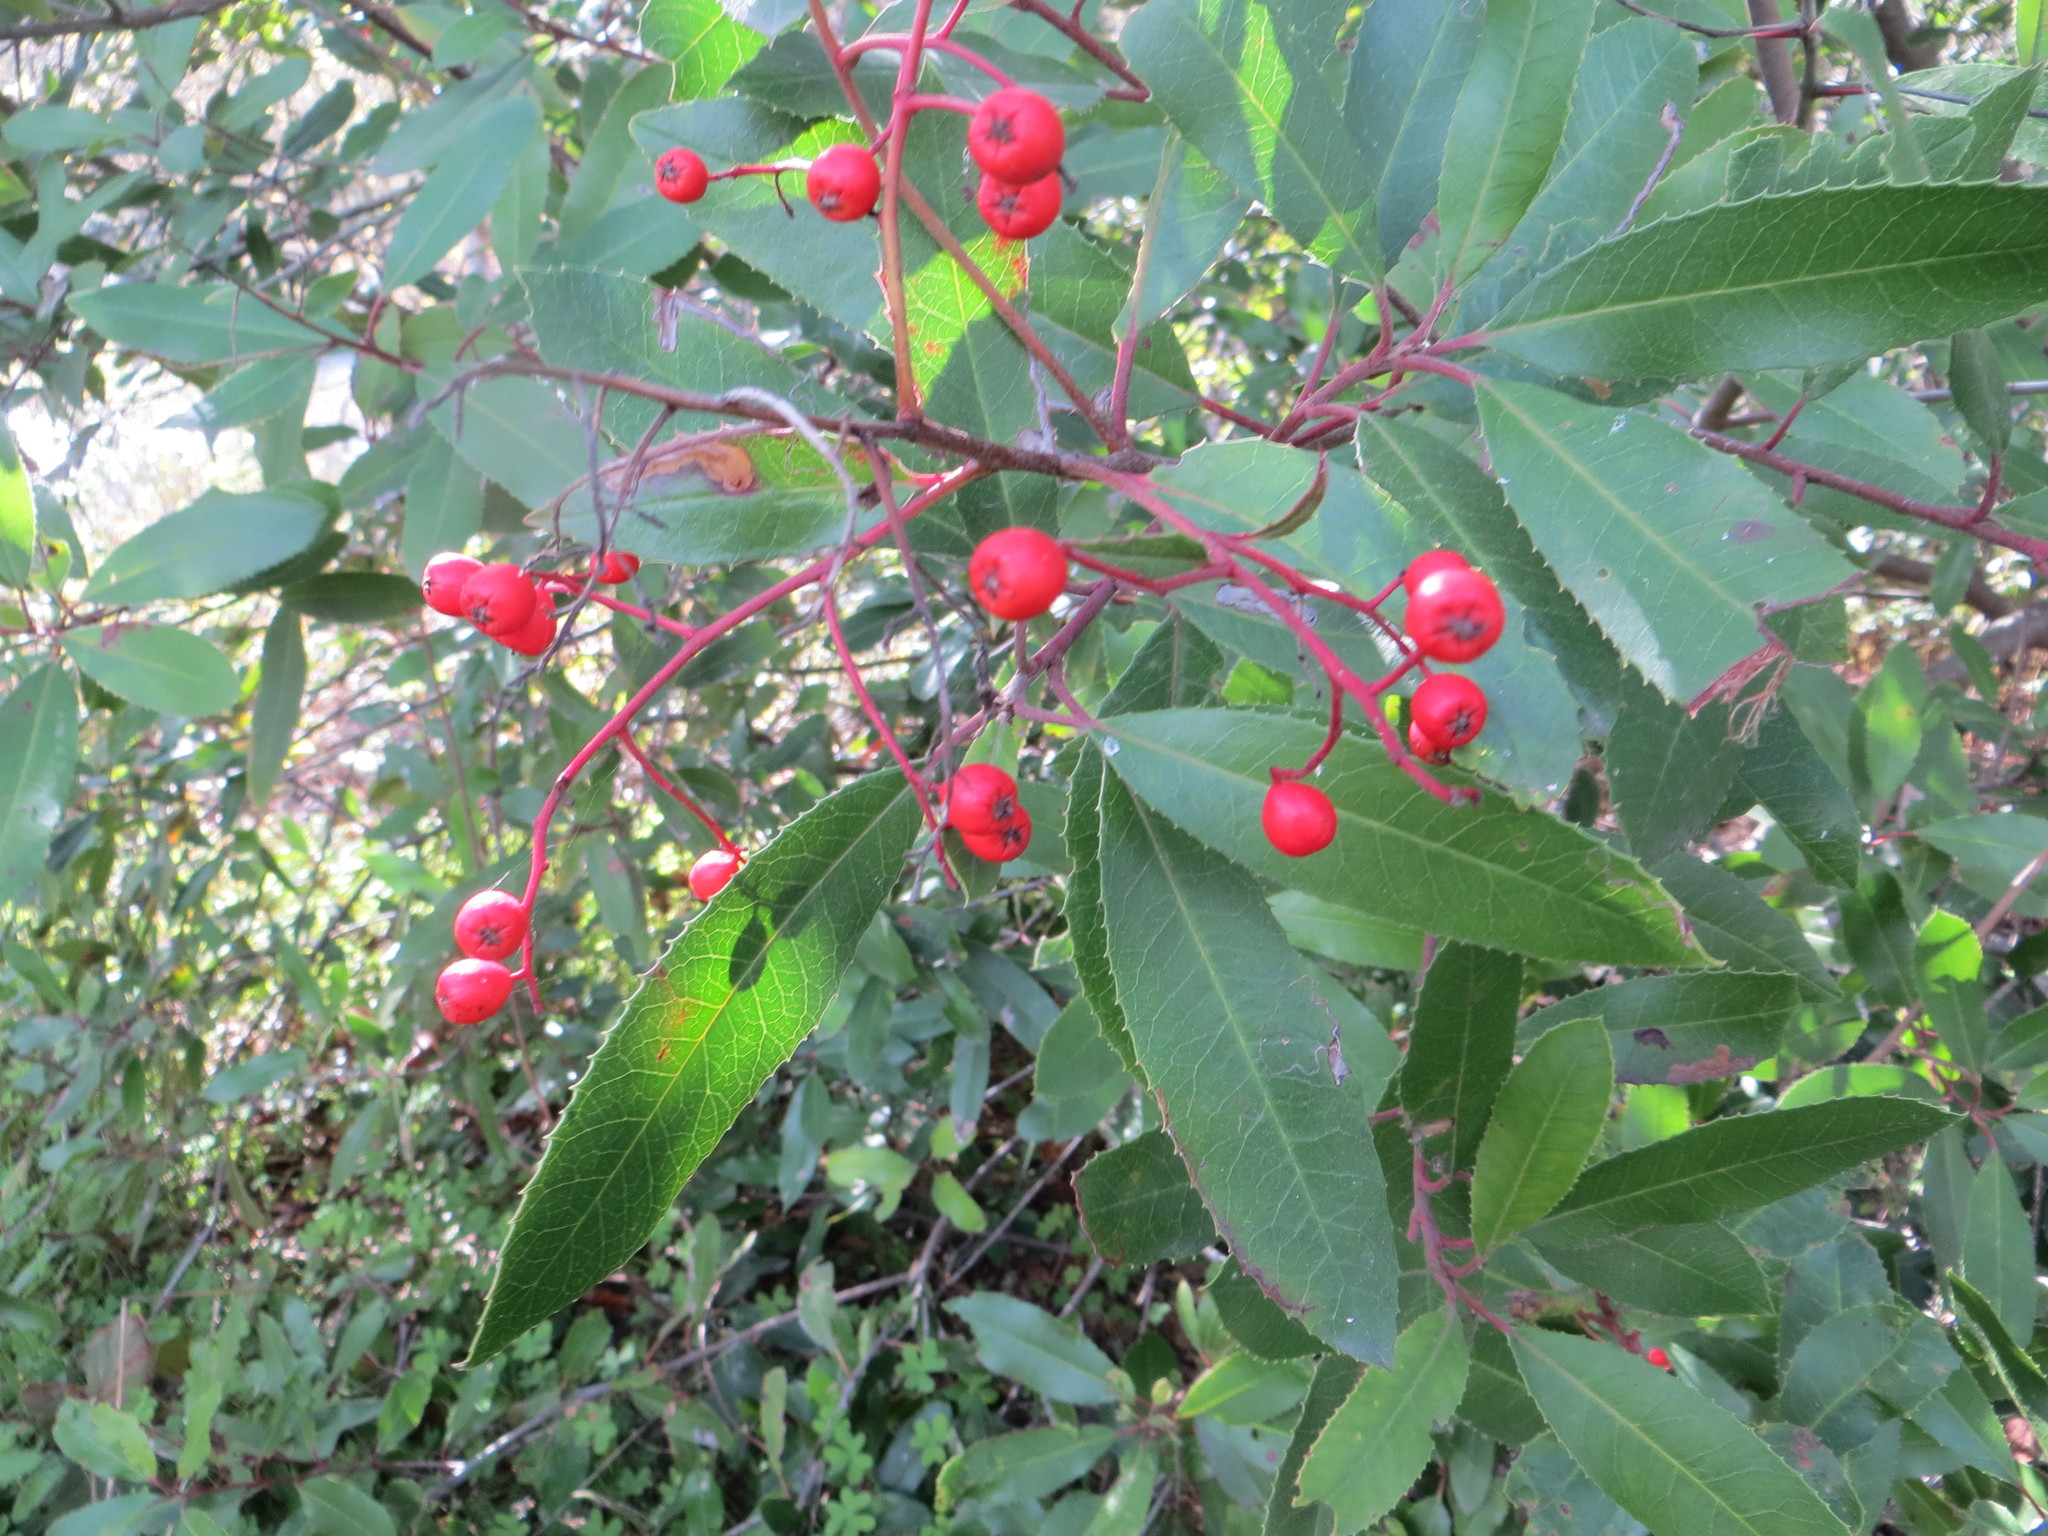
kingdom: Plantae
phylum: Tracheophyta
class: Magnoliopsida
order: Rosales
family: Rosaceae
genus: Heteromeles
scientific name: Heteromeles arbutifolia
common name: California-holly
